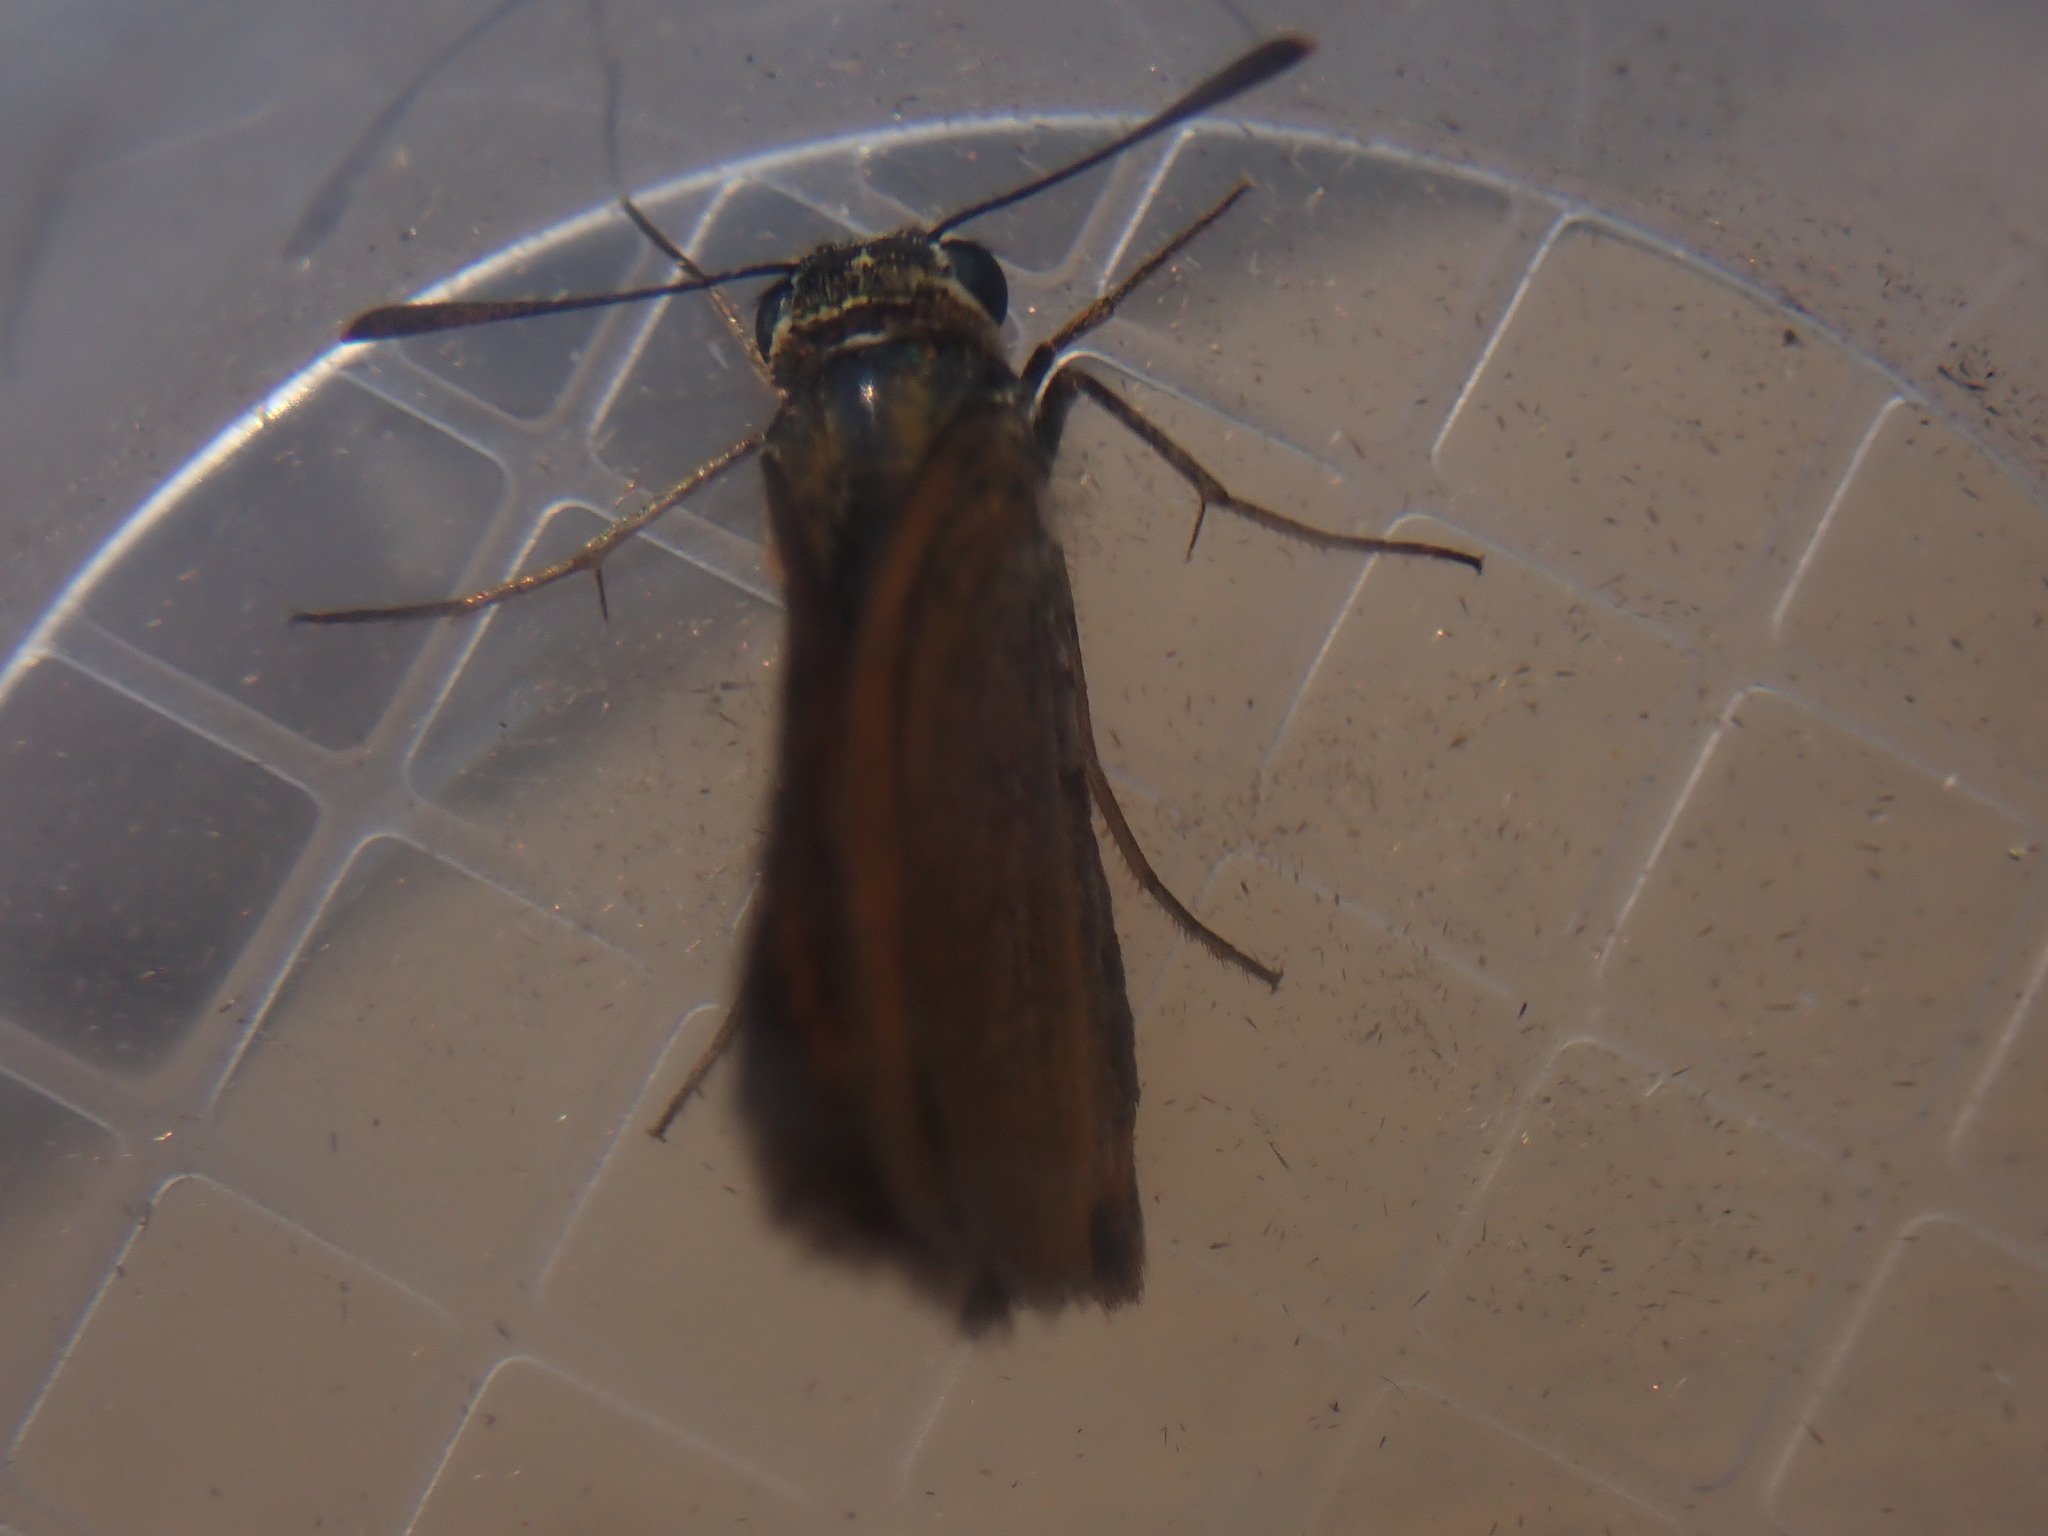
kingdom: Animalia
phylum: Arthropoda
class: Insecta
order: Lepidoptera
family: Hesperiidae
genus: Thymelicus
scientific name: Thymelicus acteon
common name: Lulworth skipper
